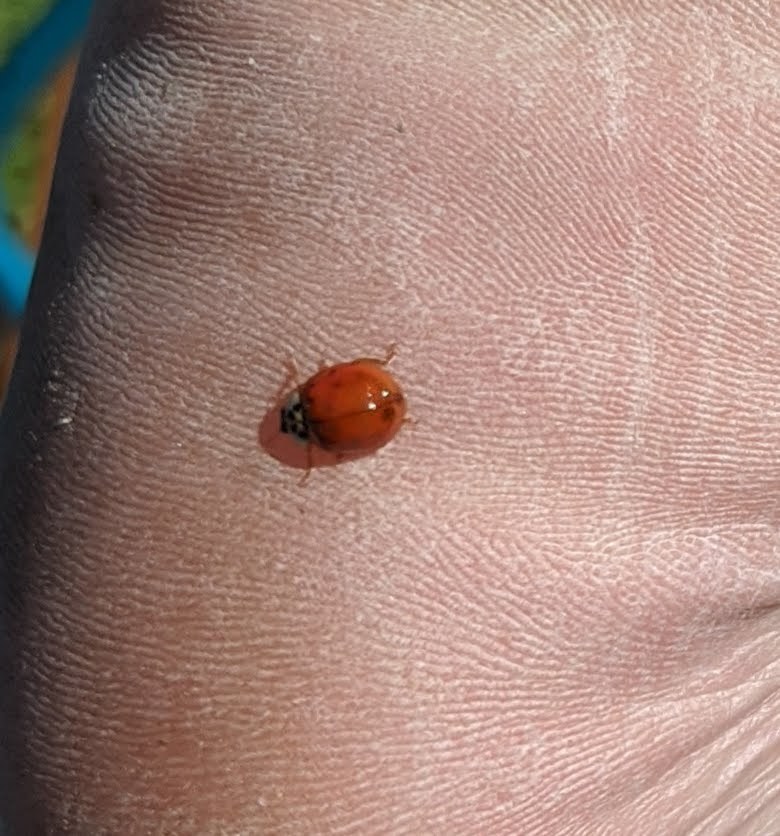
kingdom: Animalia
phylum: Arthropoda
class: Insecta
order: Coleoptera
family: Coccinellidae
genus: Harmonia
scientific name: Harmonia axyridis
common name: Harlequin ladybird
